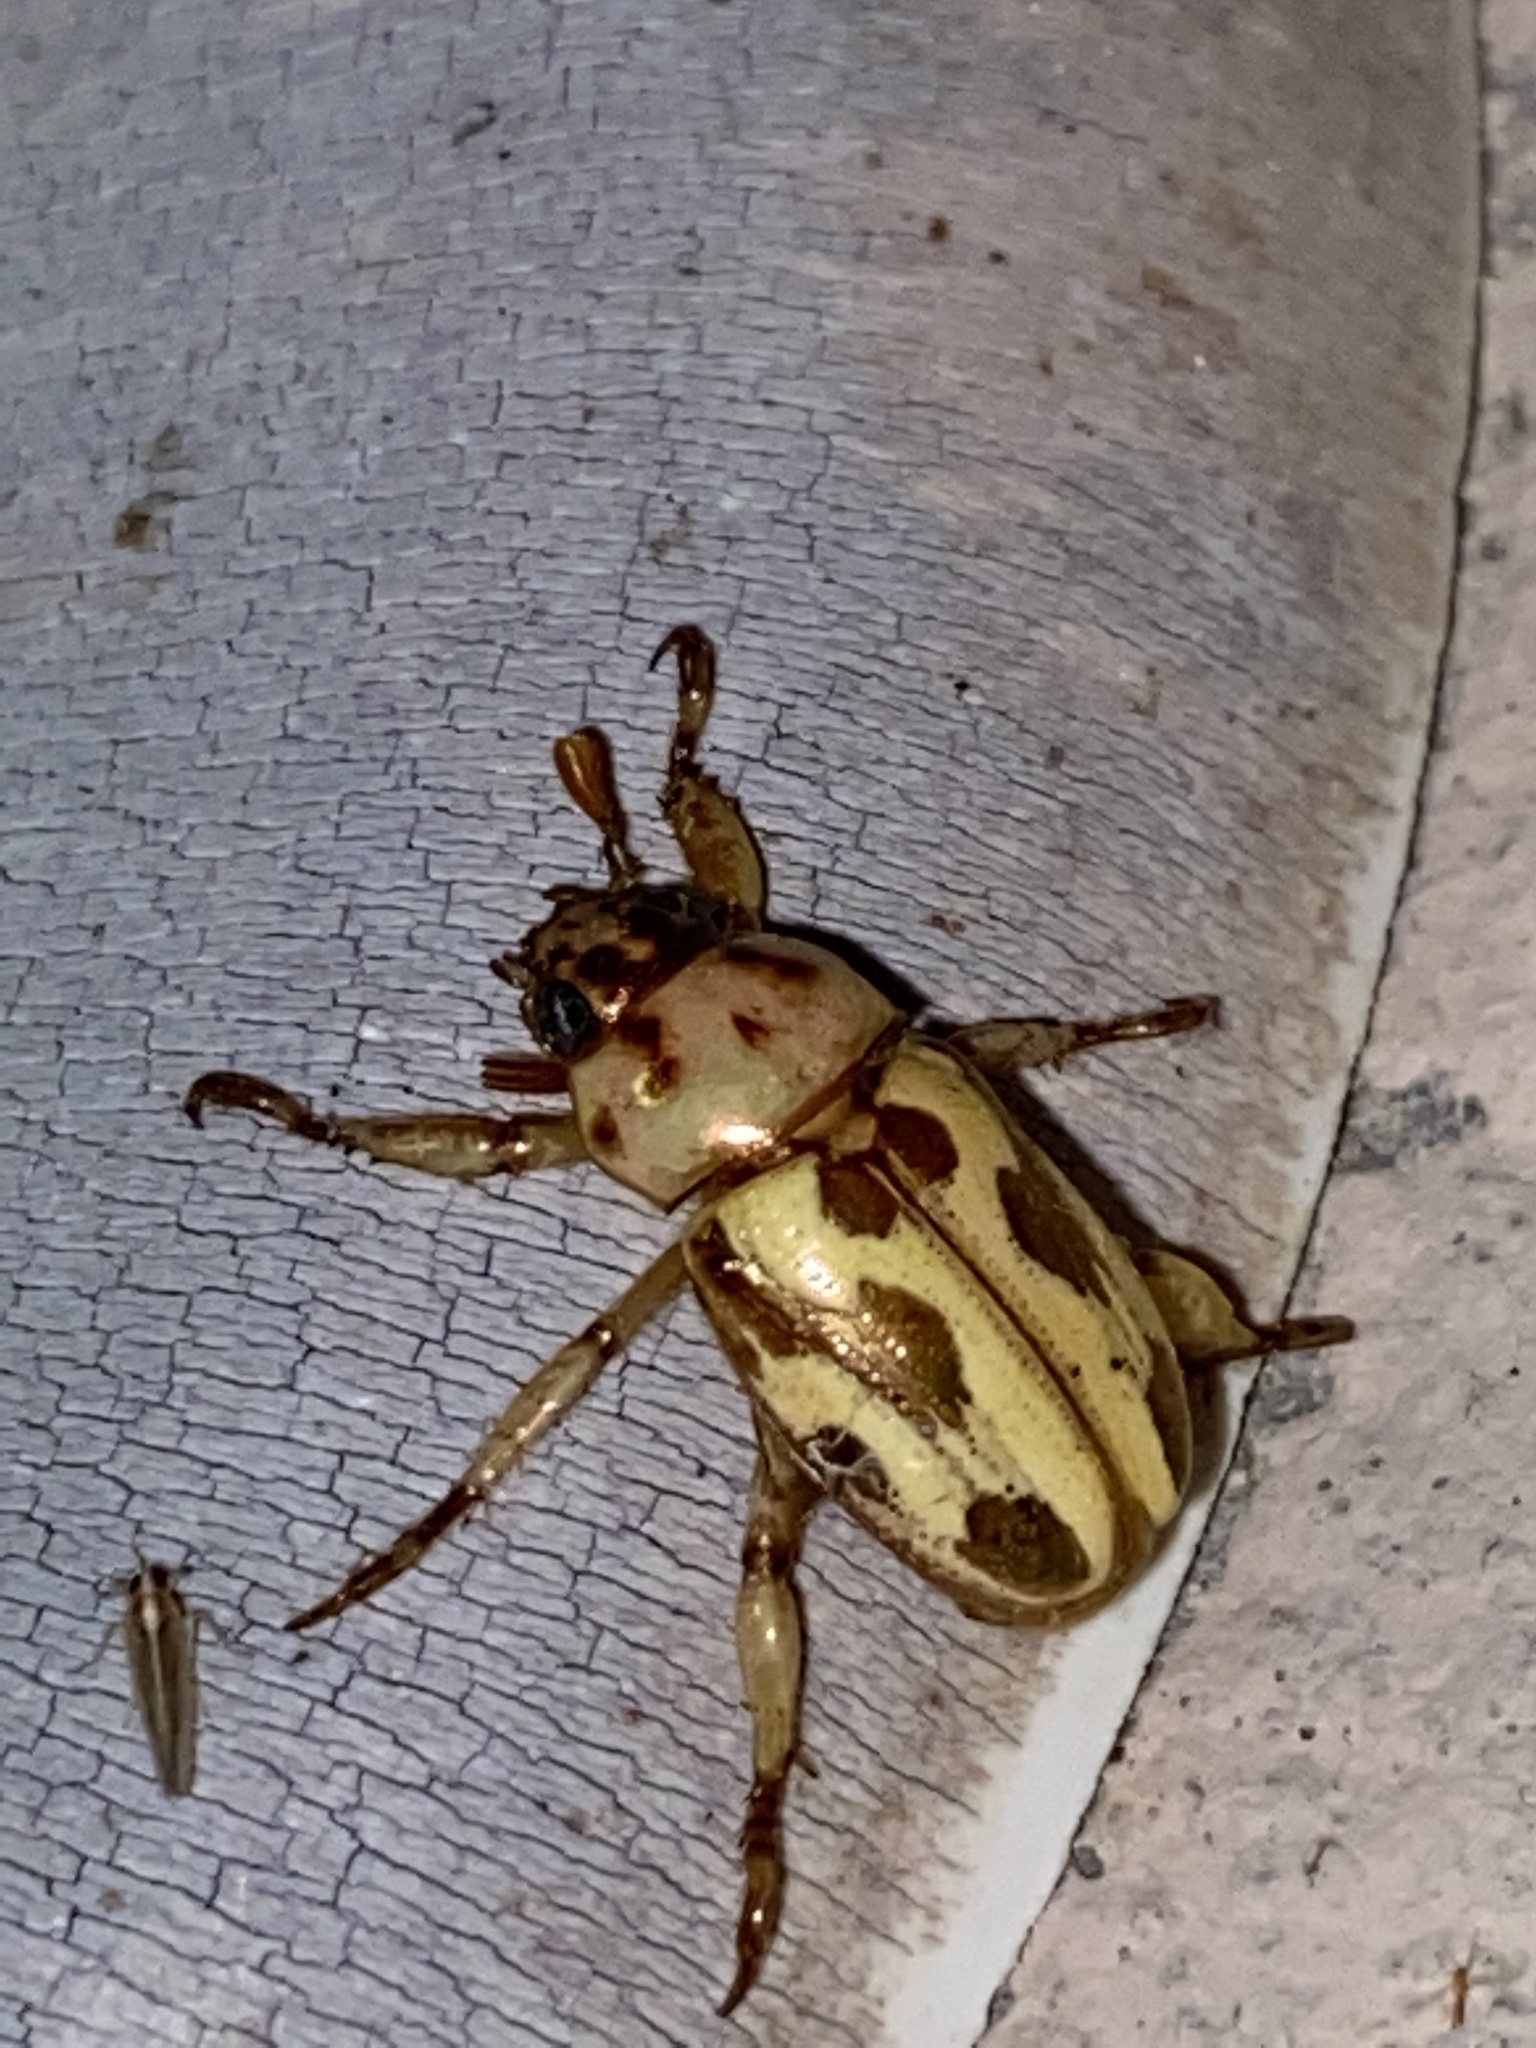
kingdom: Animalia
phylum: Arthropoda
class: Insecta
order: Coleoptera
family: Scarabaeidae
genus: Pelidnota
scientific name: Pelidnota gracilis
